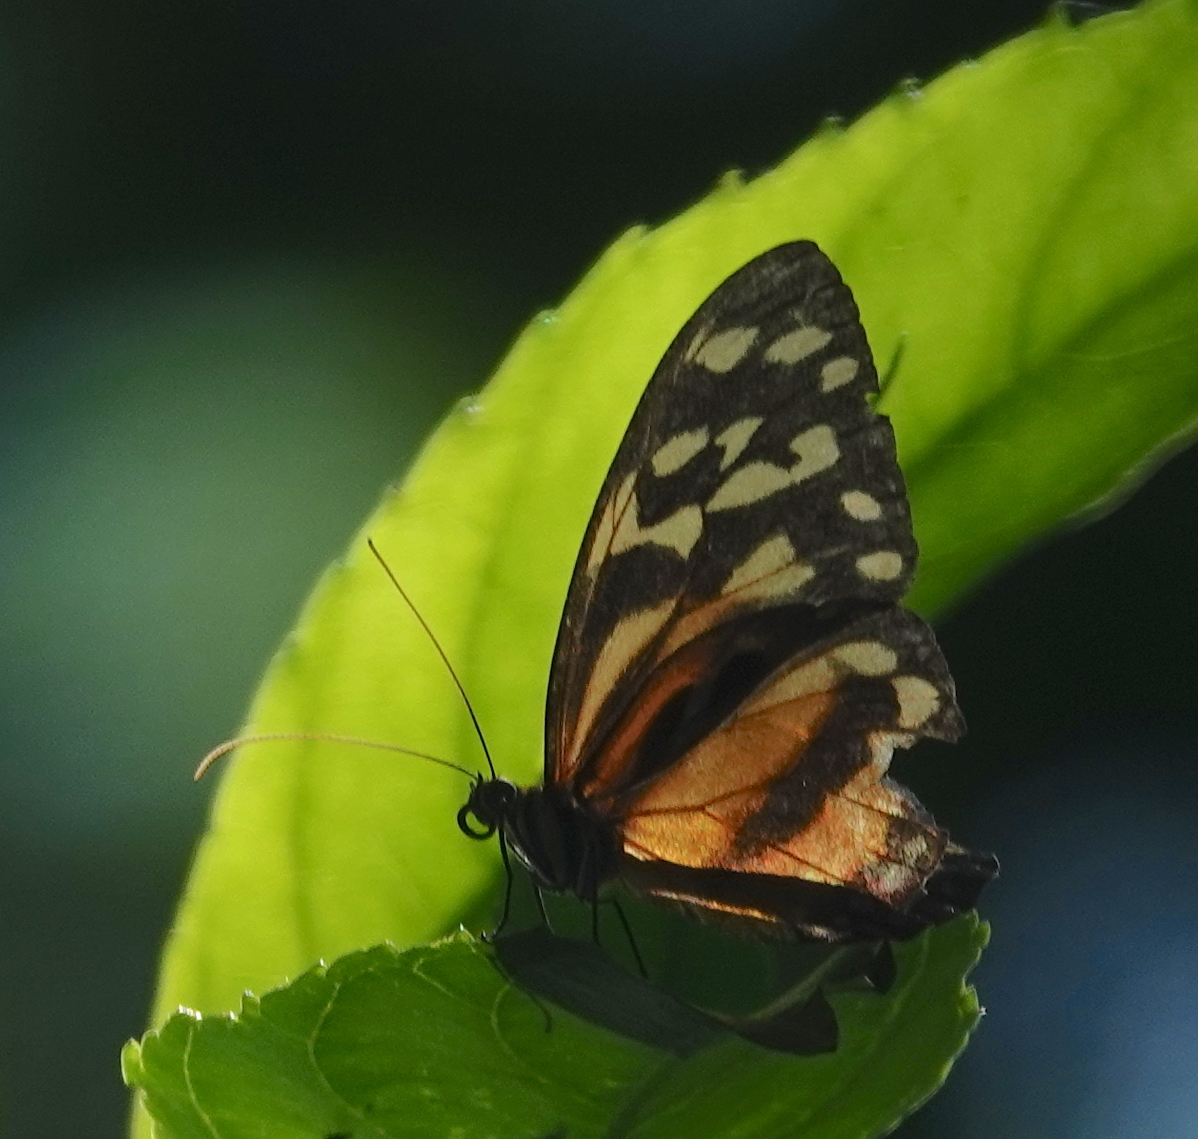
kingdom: Animalia
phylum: Arthropoda
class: Insecta
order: Lepidoptera
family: Nymphalidae
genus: Tithorea
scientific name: Tithorea harmonia
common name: Harmonia tigerwing
